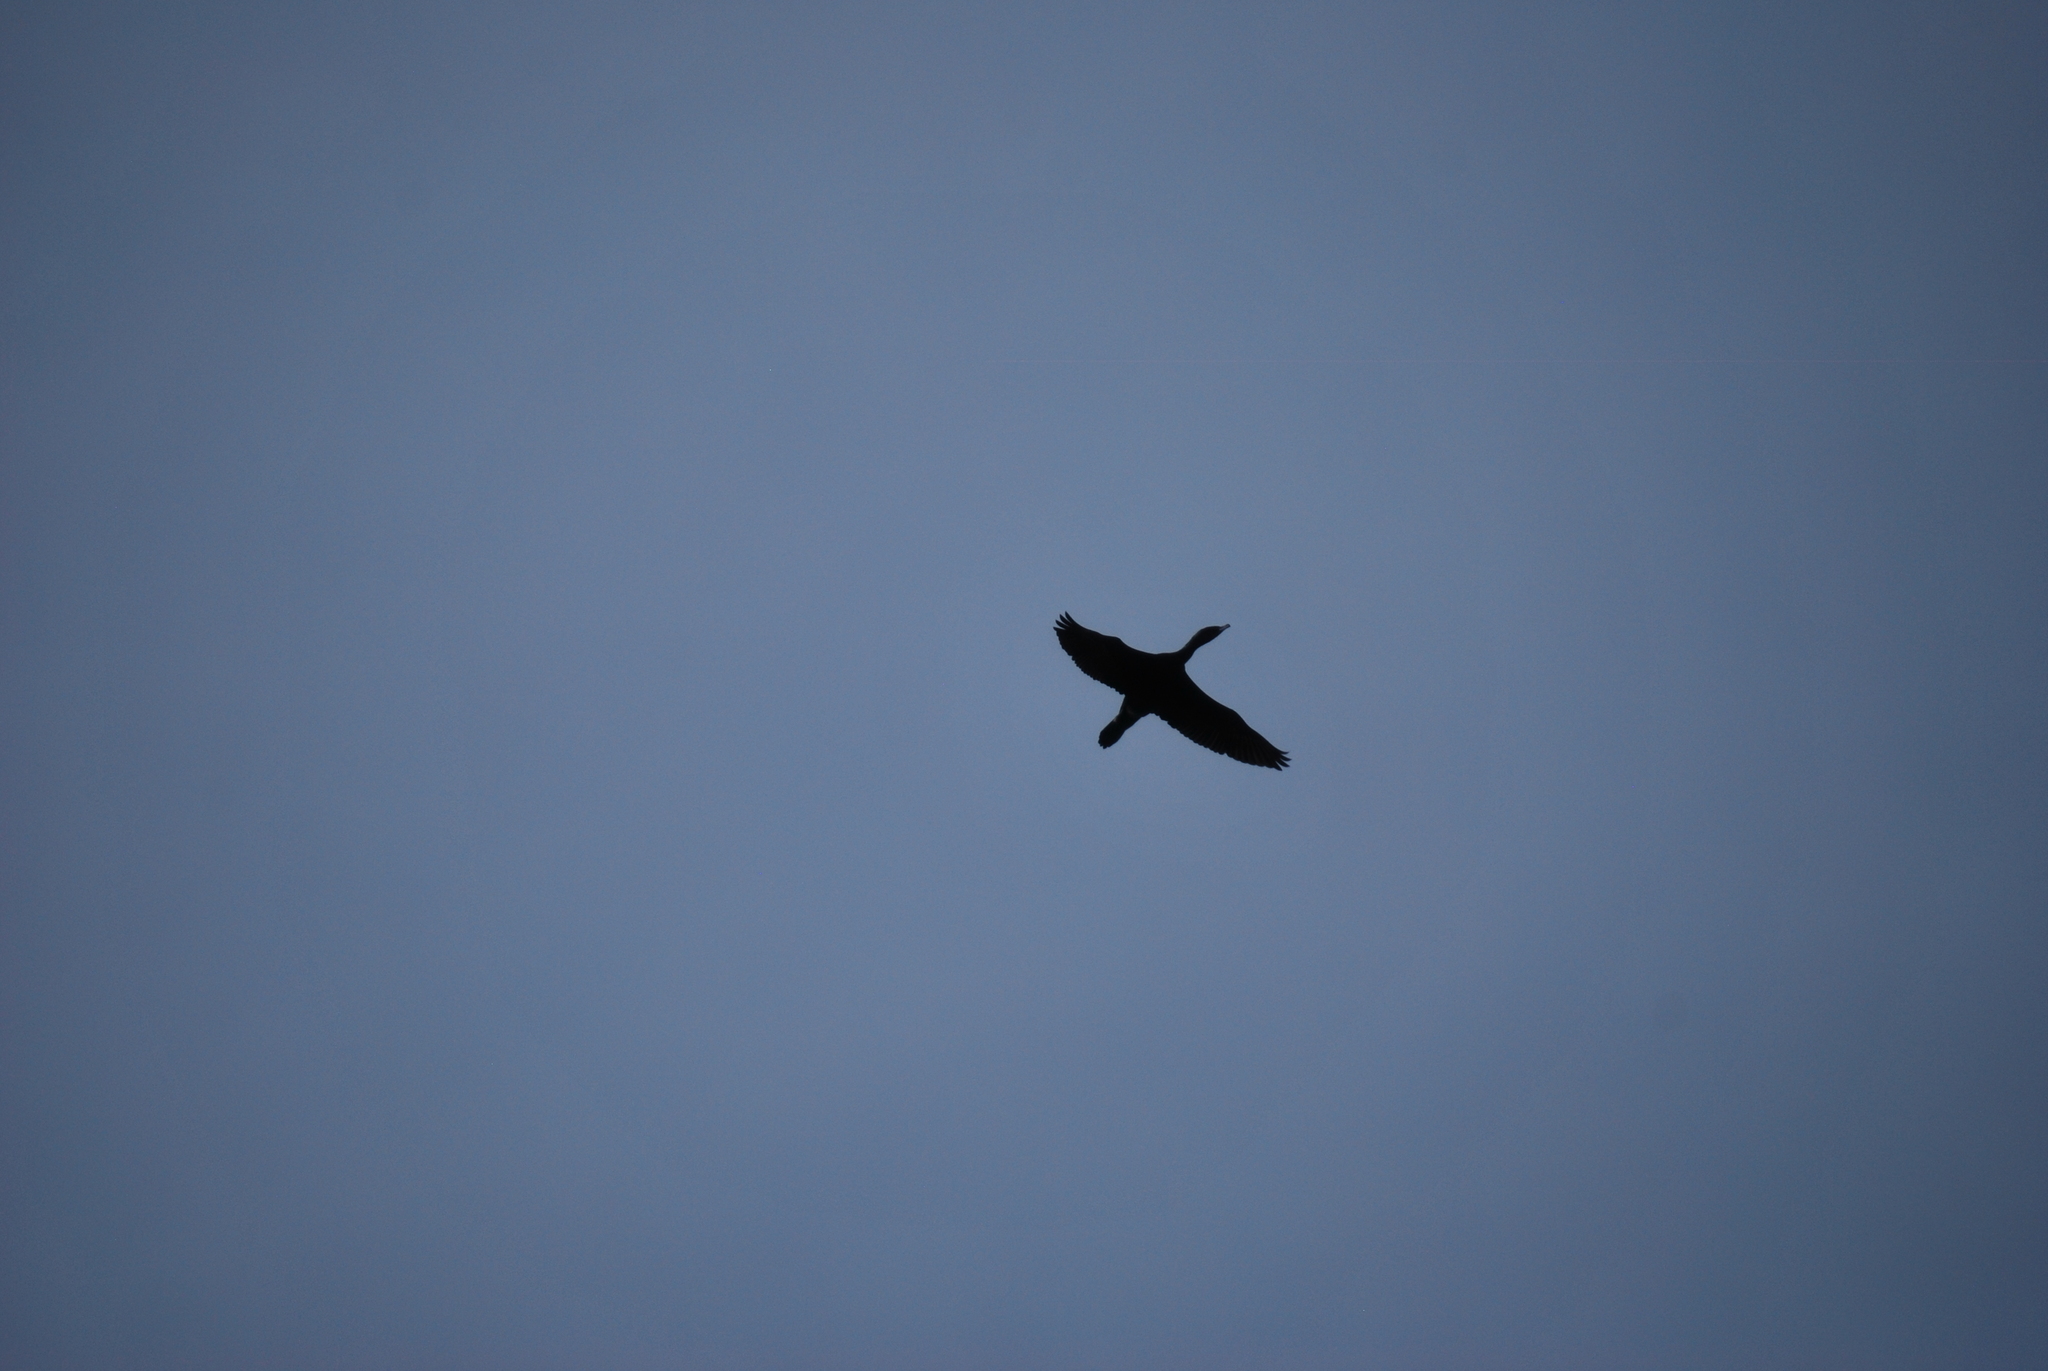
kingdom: Animalia
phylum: Chordata
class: Aves
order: Suliformes
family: Phalacrocoracidae
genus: Phalacrocorax
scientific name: Phalacrocorax auritus
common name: Double-crested cormorant
